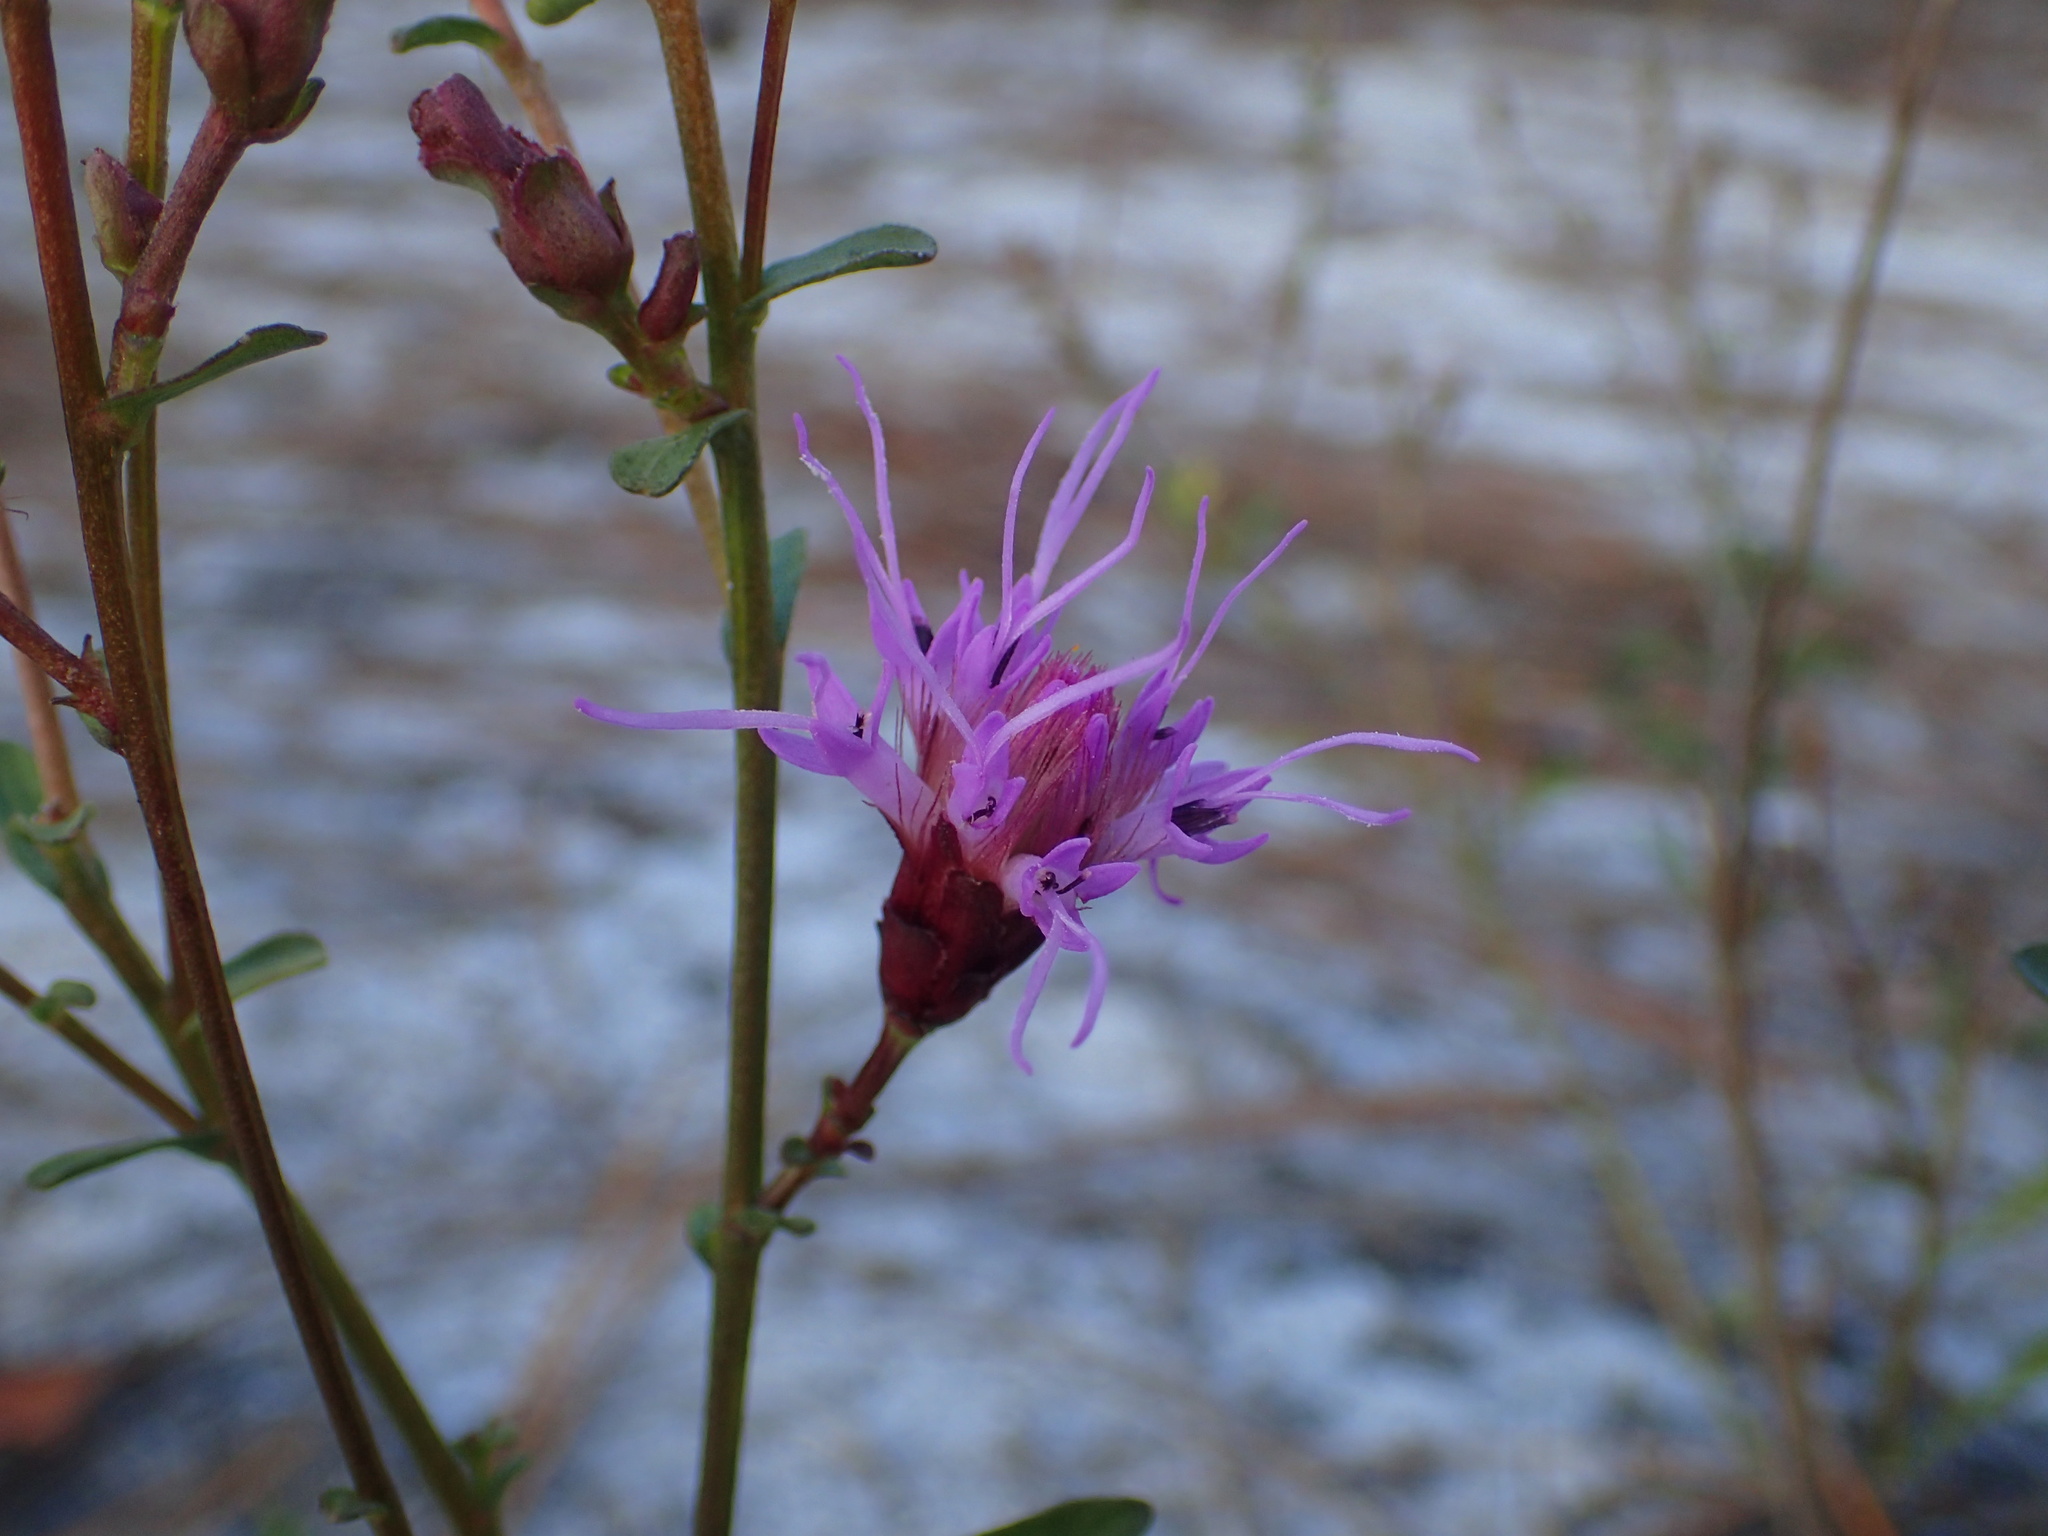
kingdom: Plantae
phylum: Tracheophyta
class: Magnoliopsida
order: Asterales
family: Asteraceae
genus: Carphephorus
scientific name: Carphephorus bellidifolius
